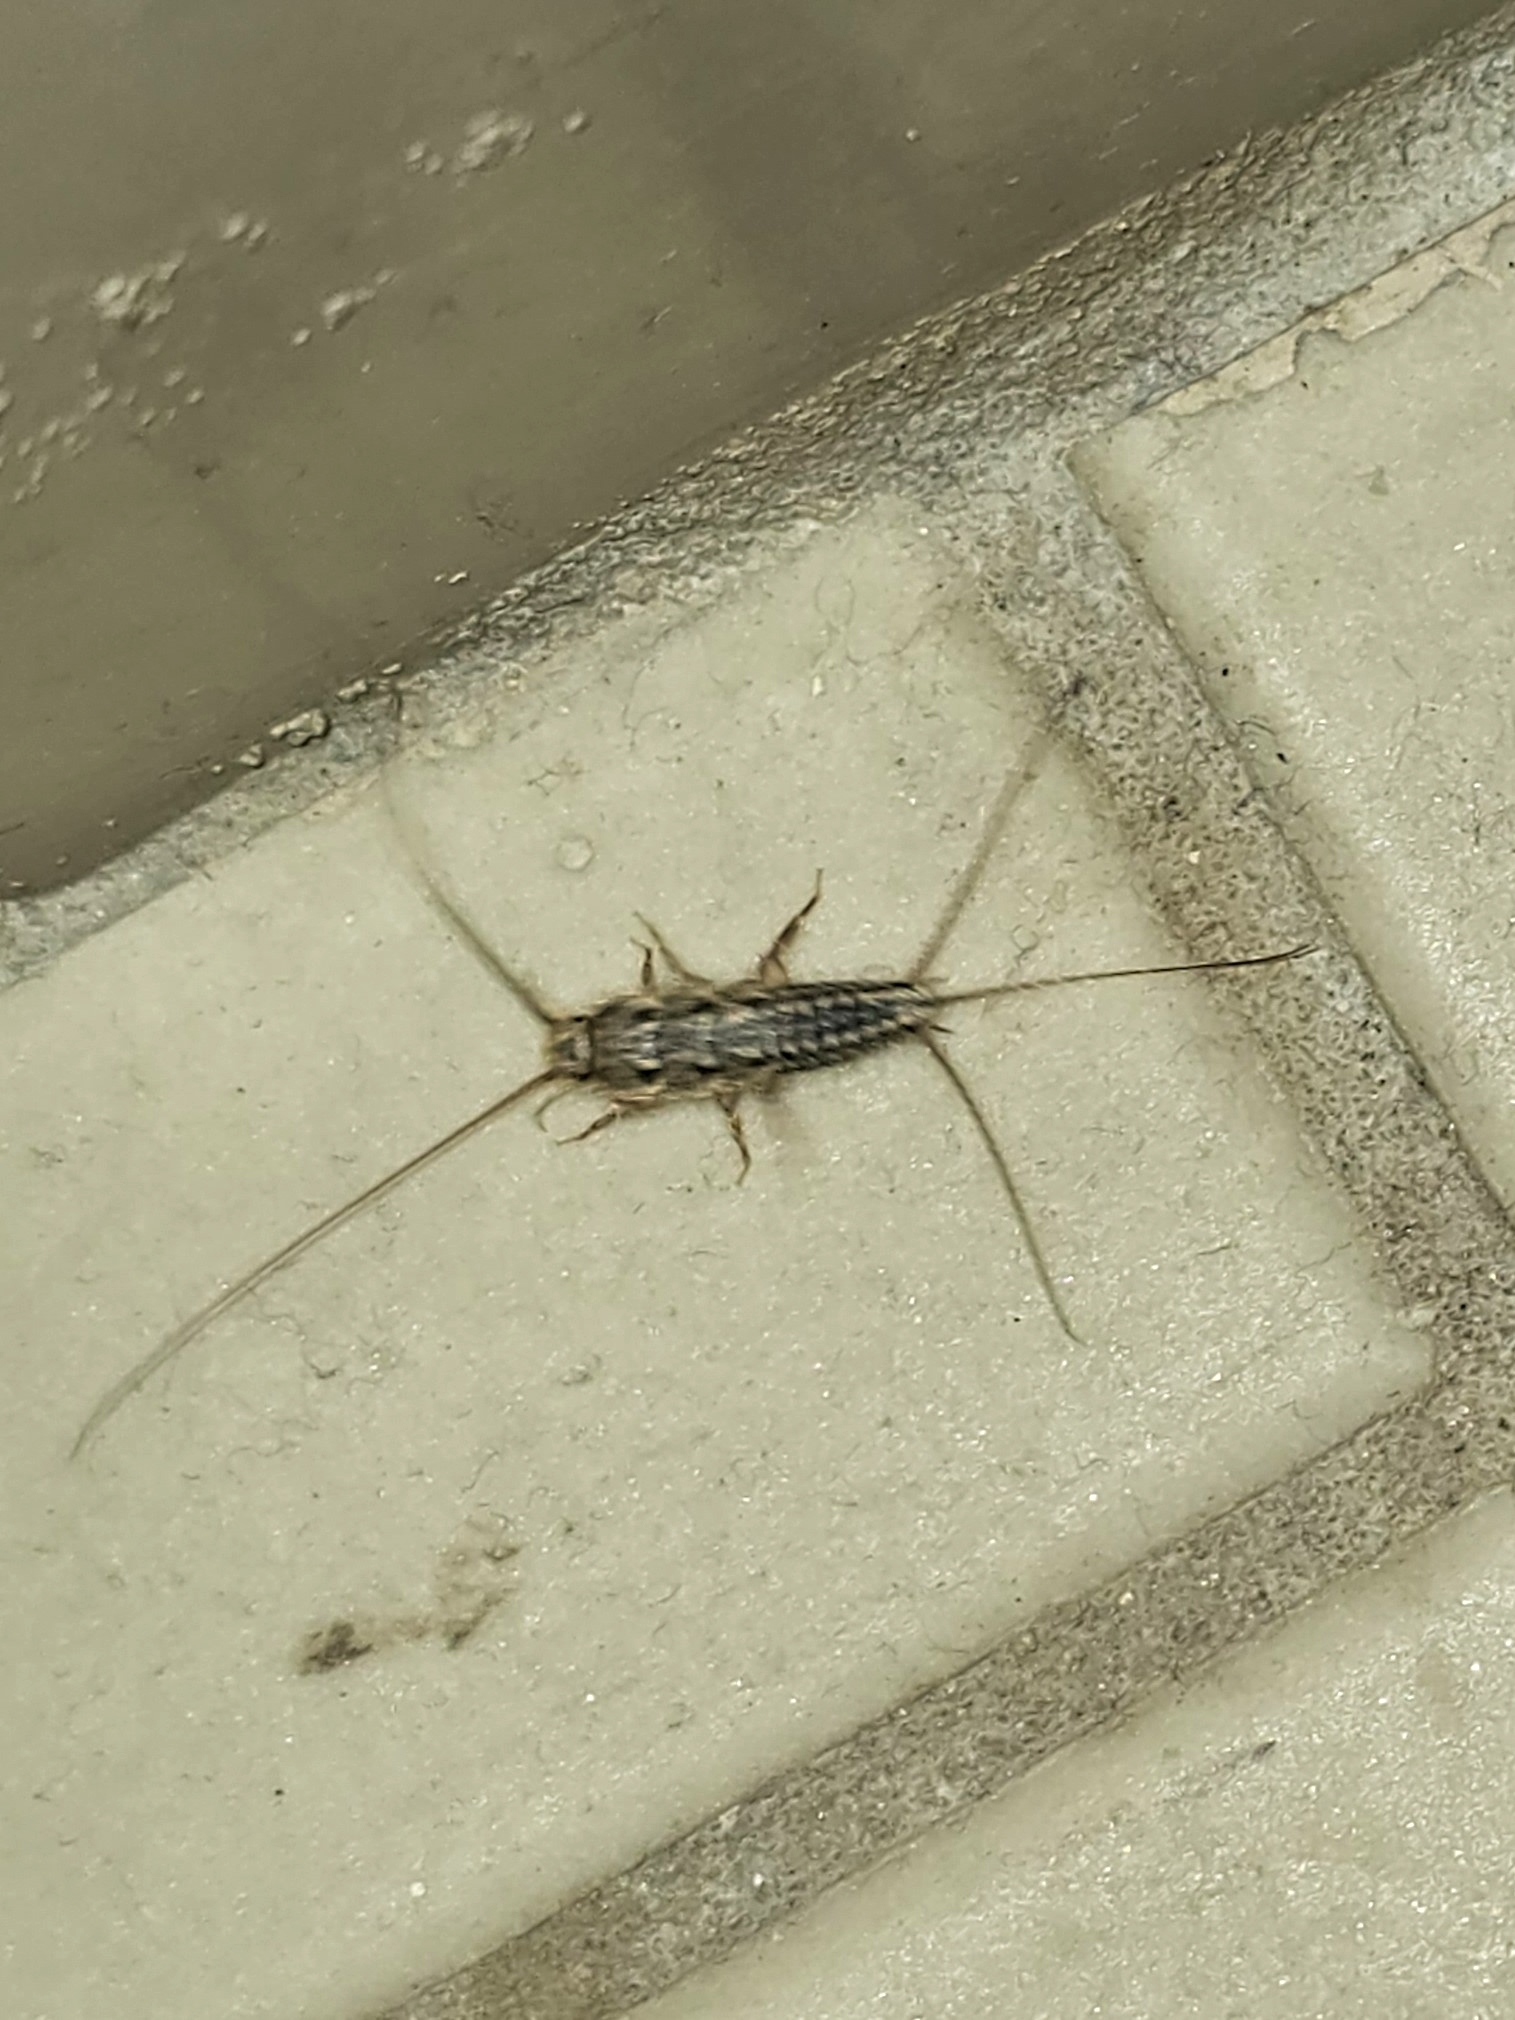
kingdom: Animalia
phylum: Arthropoda
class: Insecta
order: Zygentoma
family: Lepismatidae
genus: Ctenolepisma
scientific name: Ctenolepisma lineata
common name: Four-lined silverfish
